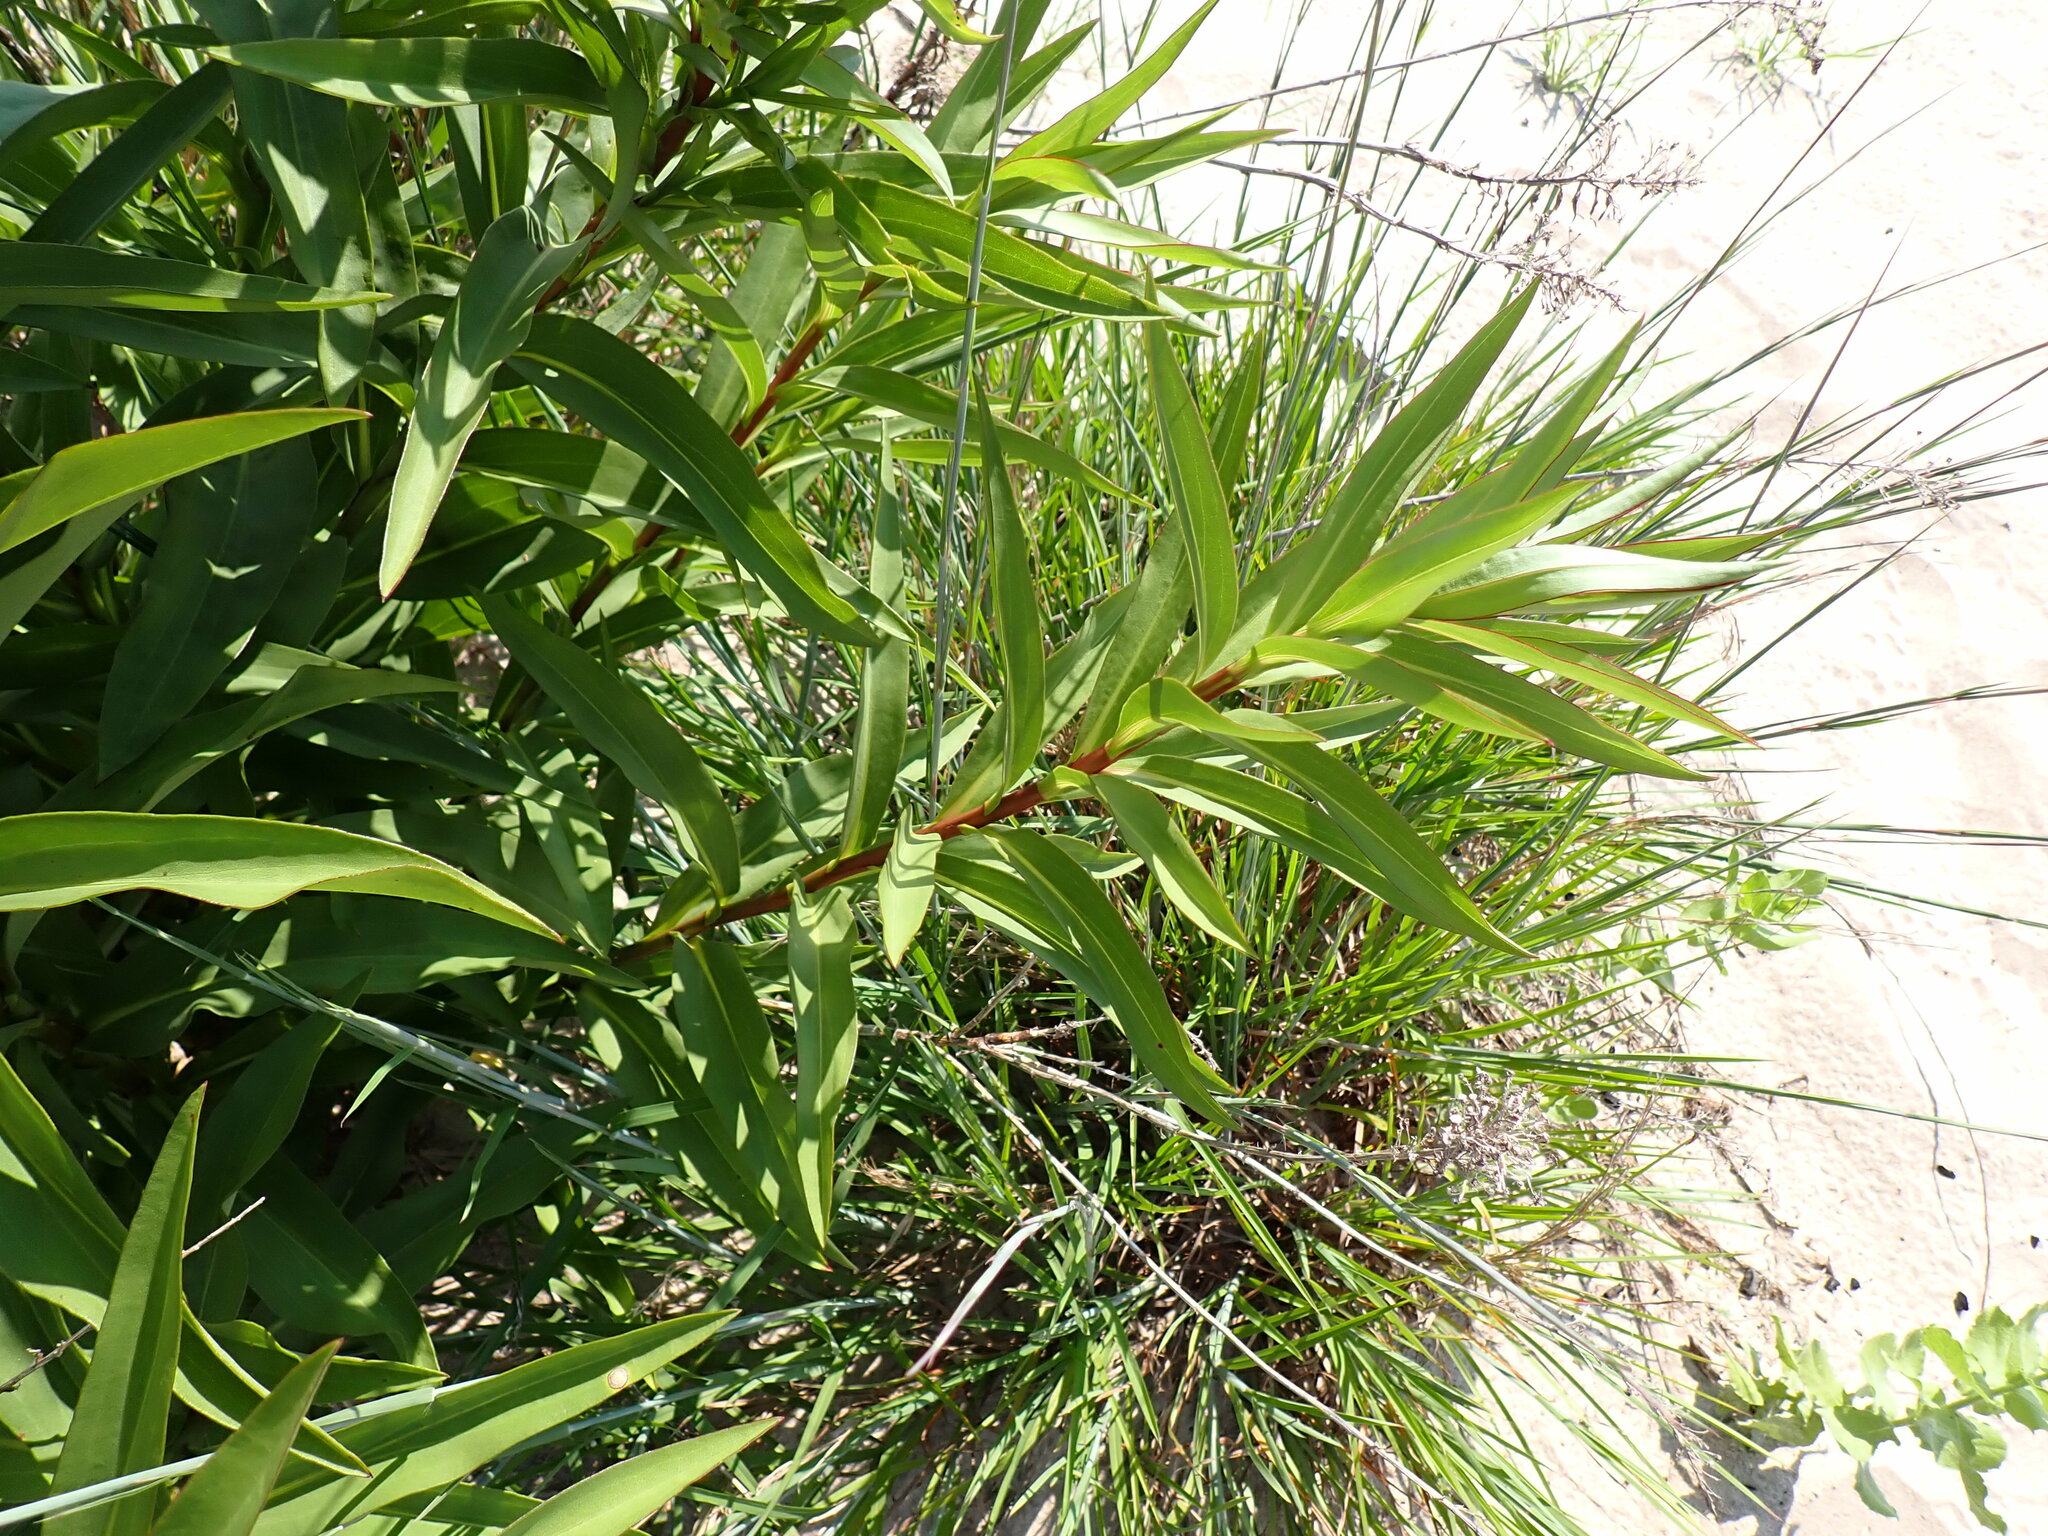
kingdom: Plantae
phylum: Tracheophyta
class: Magnoliopsida
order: Asterales
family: Asteraceae
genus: Solidago
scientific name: Solidago sempervirens
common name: Salt-marsh goldenrod
